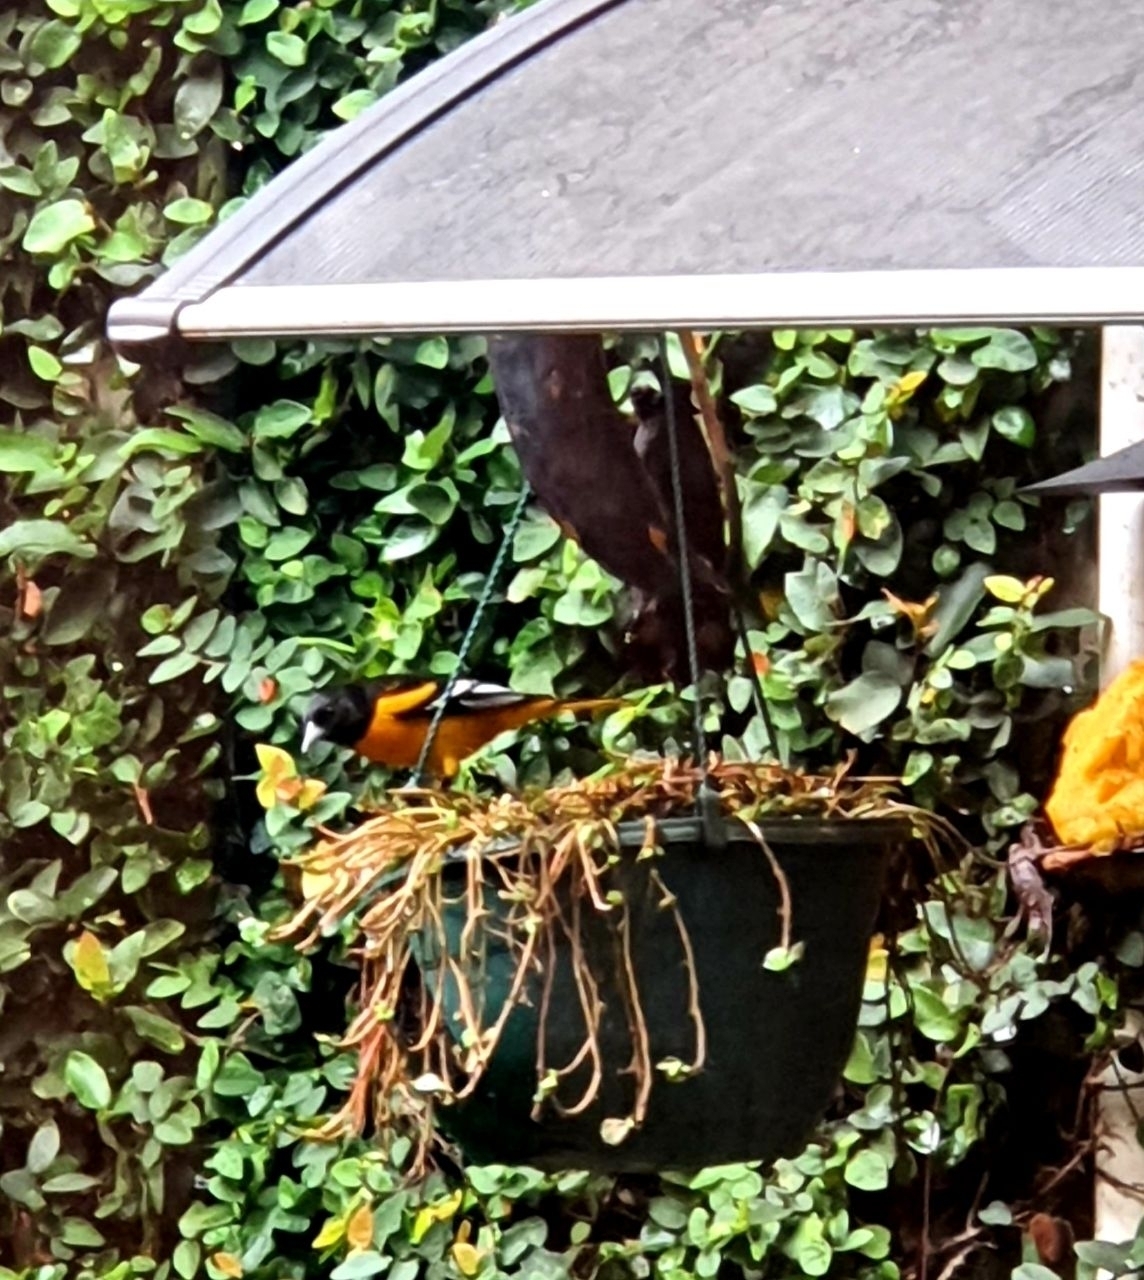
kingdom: Animalia
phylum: Chordata
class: Aves
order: Passeriformes
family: Icteridae
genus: Icterus
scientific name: Icterus galbula
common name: Baltimore oriole
